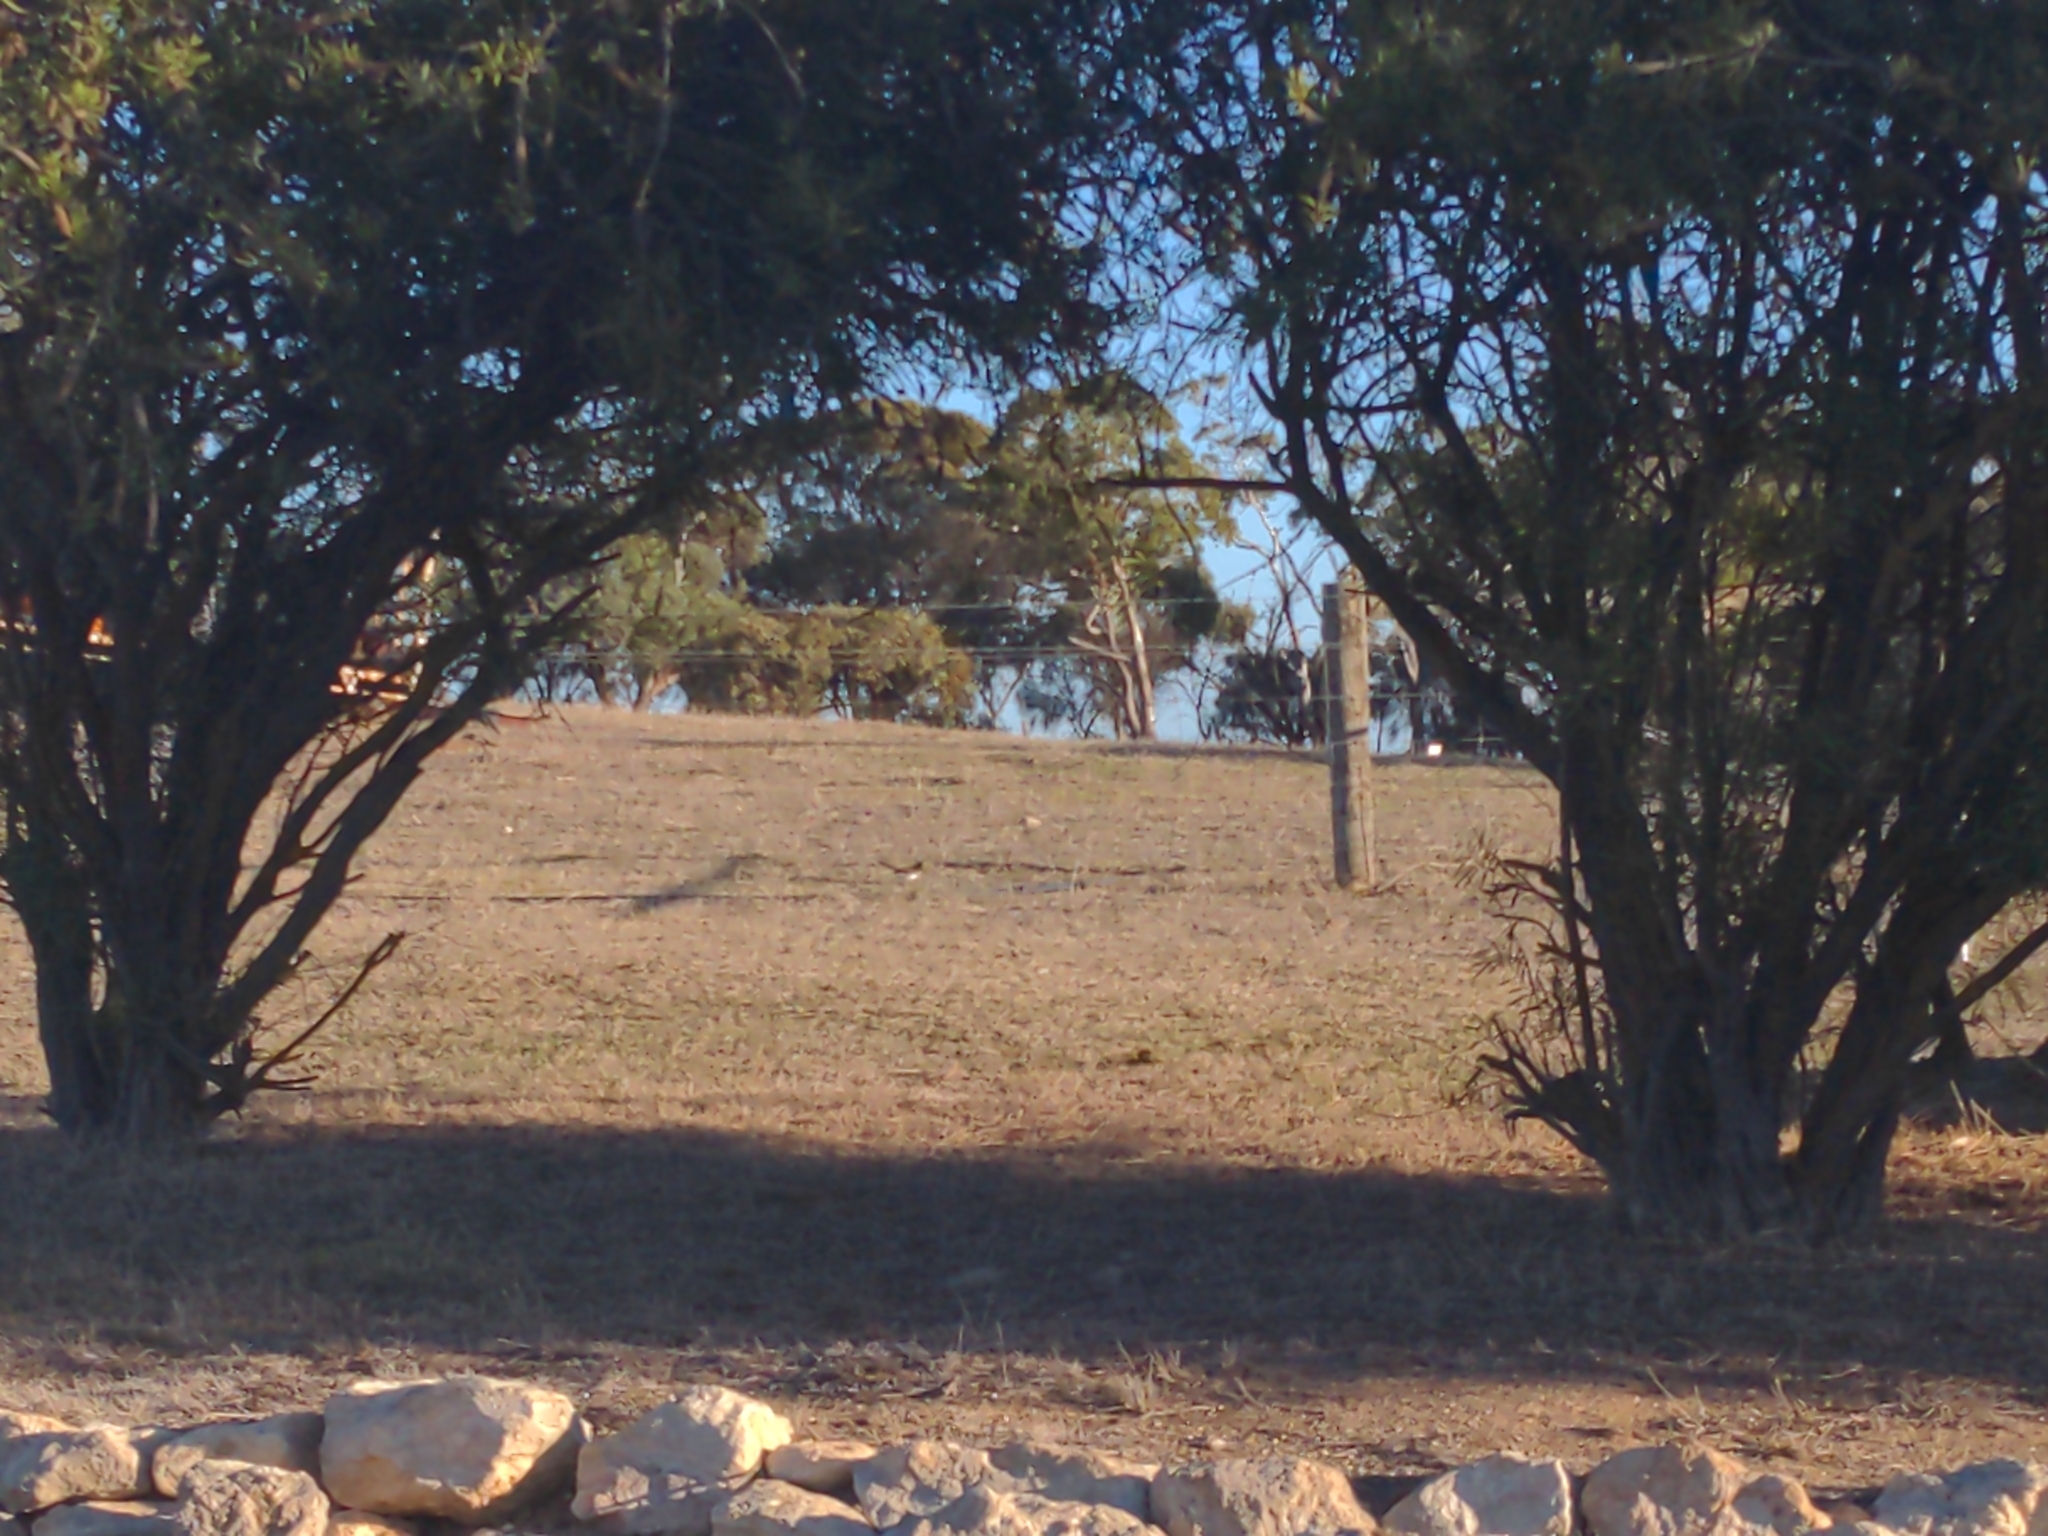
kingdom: Animalia
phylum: Chordata
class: Aves
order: Passeriformes
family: Rhipiduridae
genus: Rhipidura
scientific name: Rhipidura leucophrys
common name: Willie wagtail
